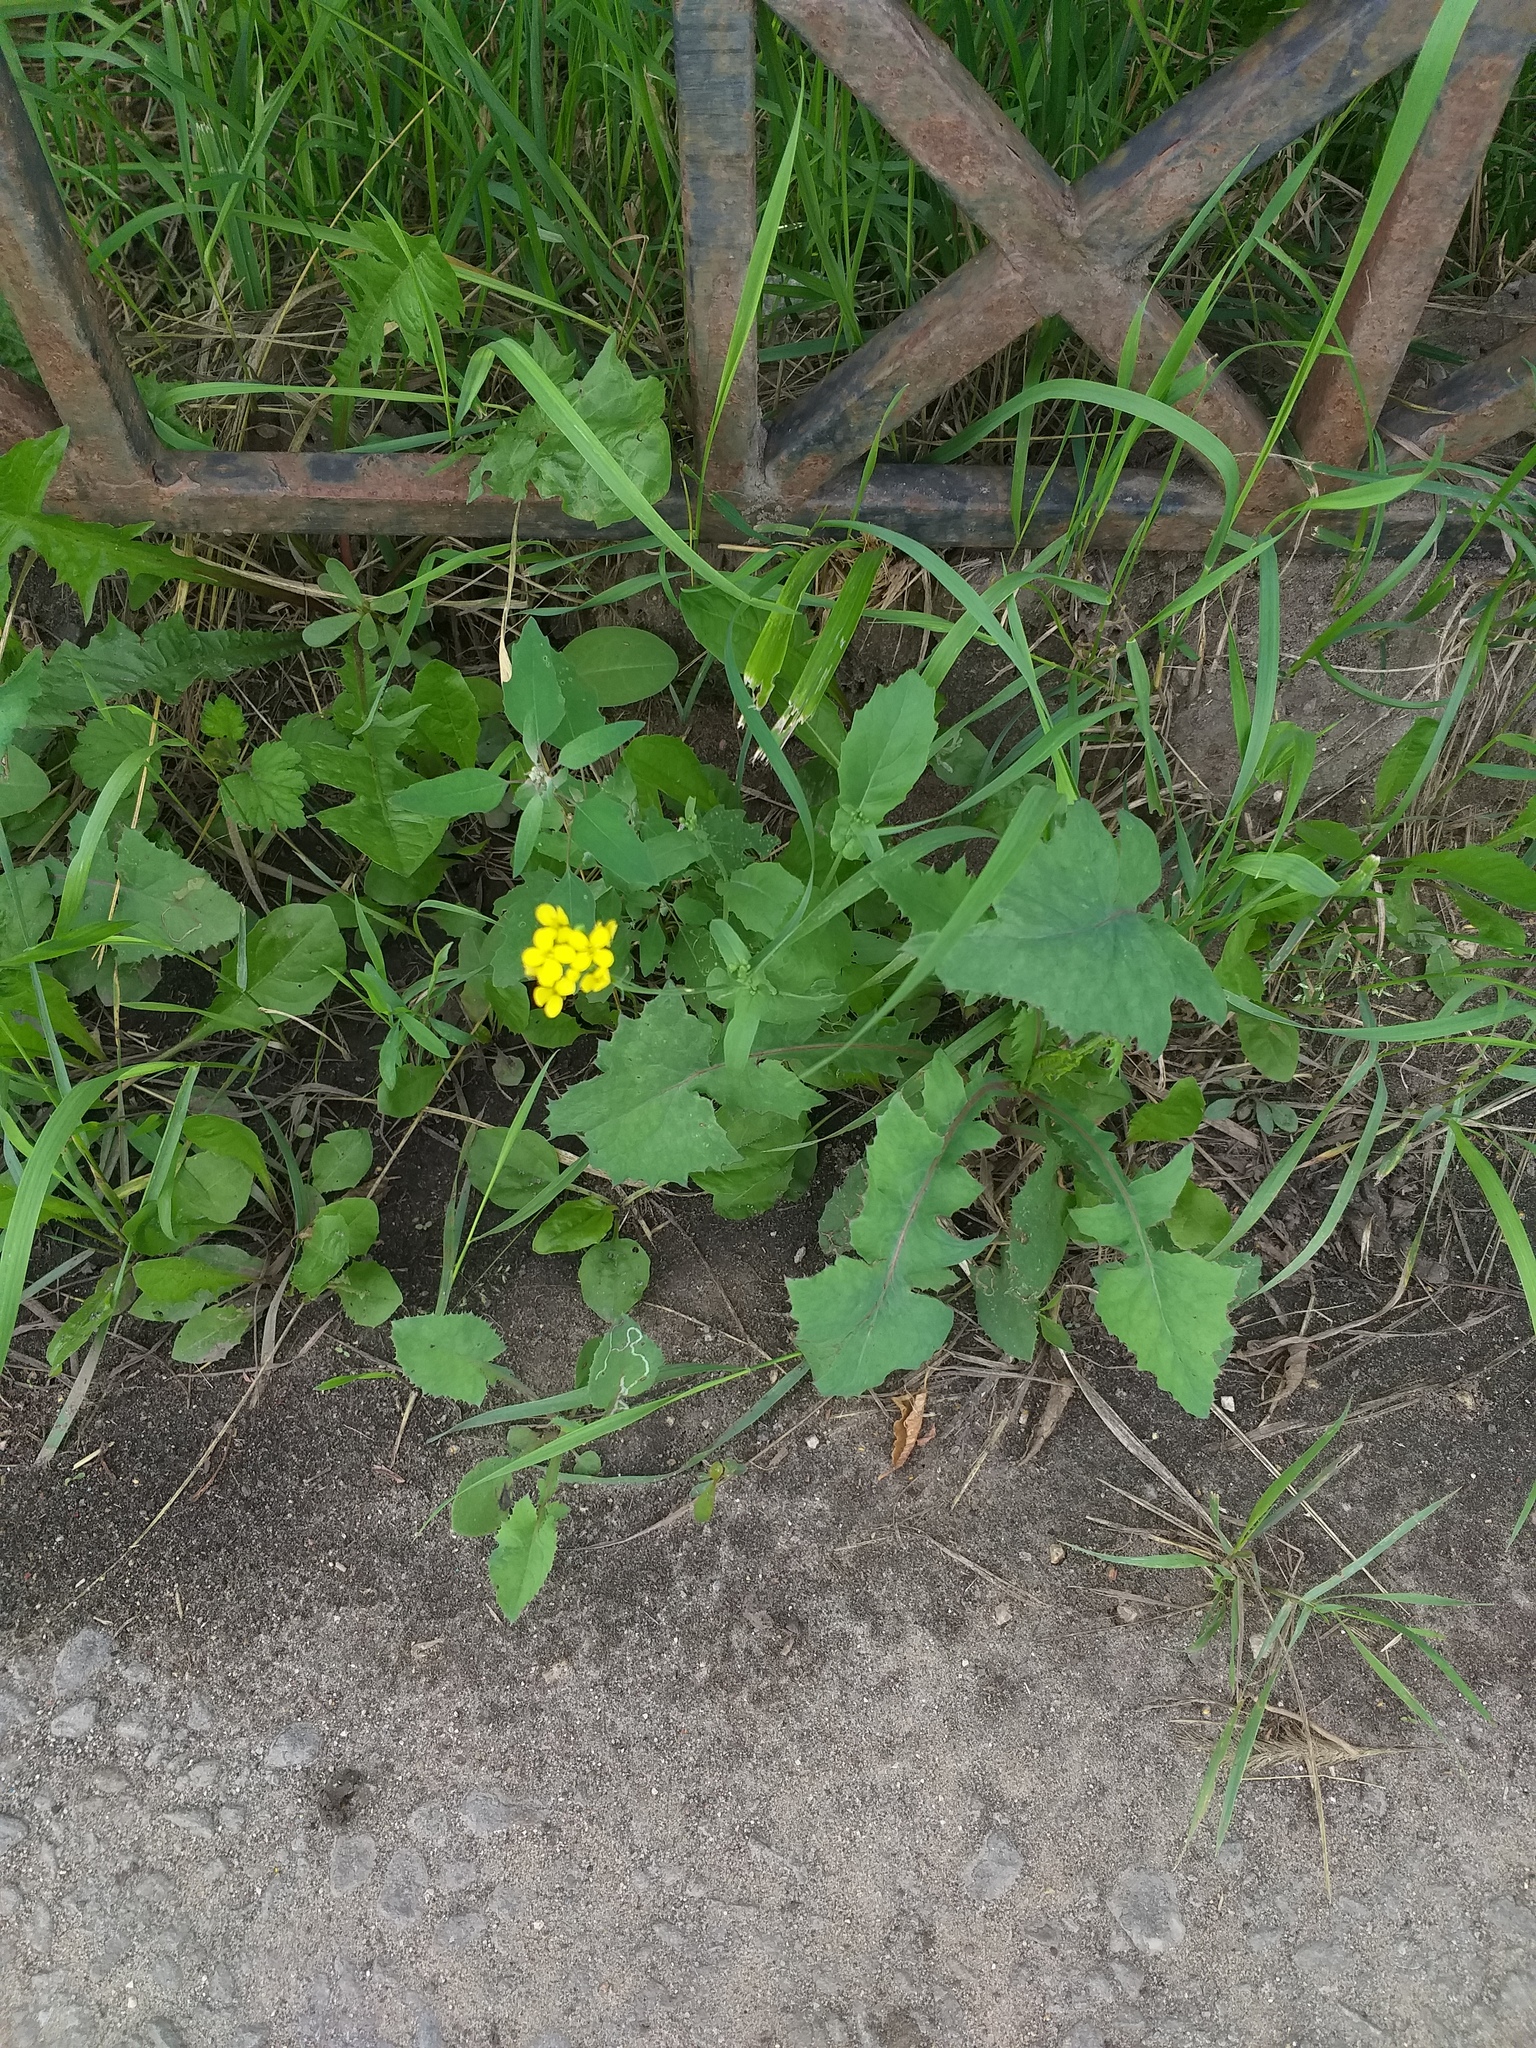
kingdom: Plantae
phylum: Tracheophyta
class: Magnoliopsida
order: Brassicales
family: Brassicaceae
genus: Brassica
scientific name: Brassica rapa
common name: Field mustard
